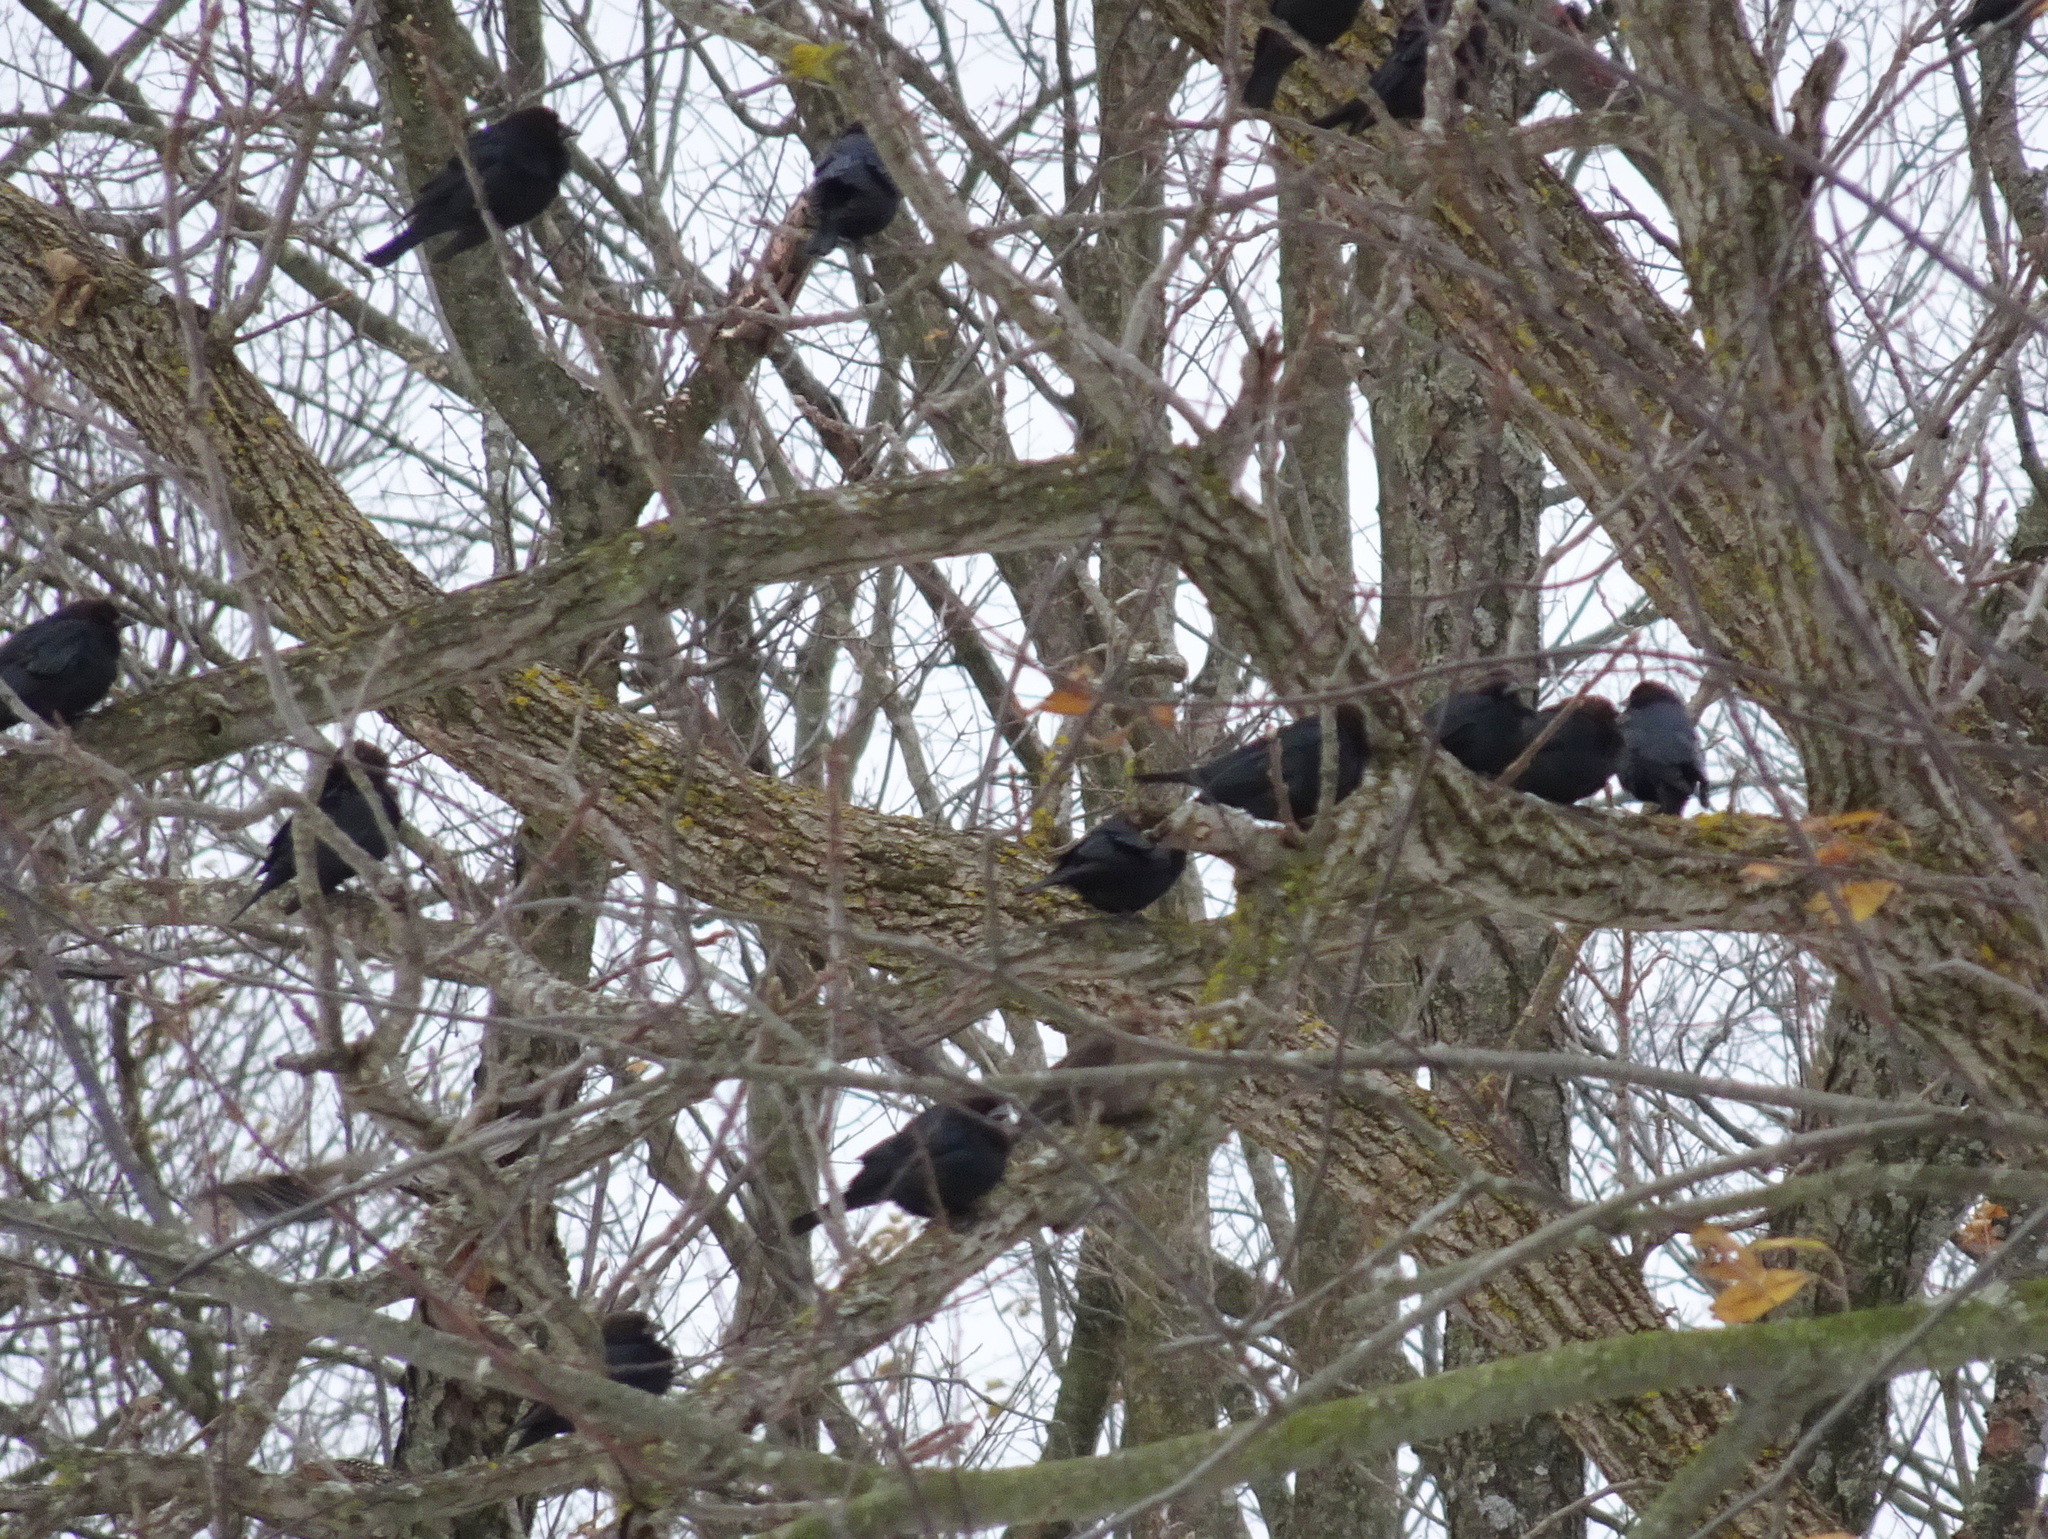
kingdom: Animalia
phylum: Chordata
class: Aves
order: Passeriformes
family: Icteridae
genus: Molothrus
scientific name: Molothrus ater
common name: Brown-headed cowbird
